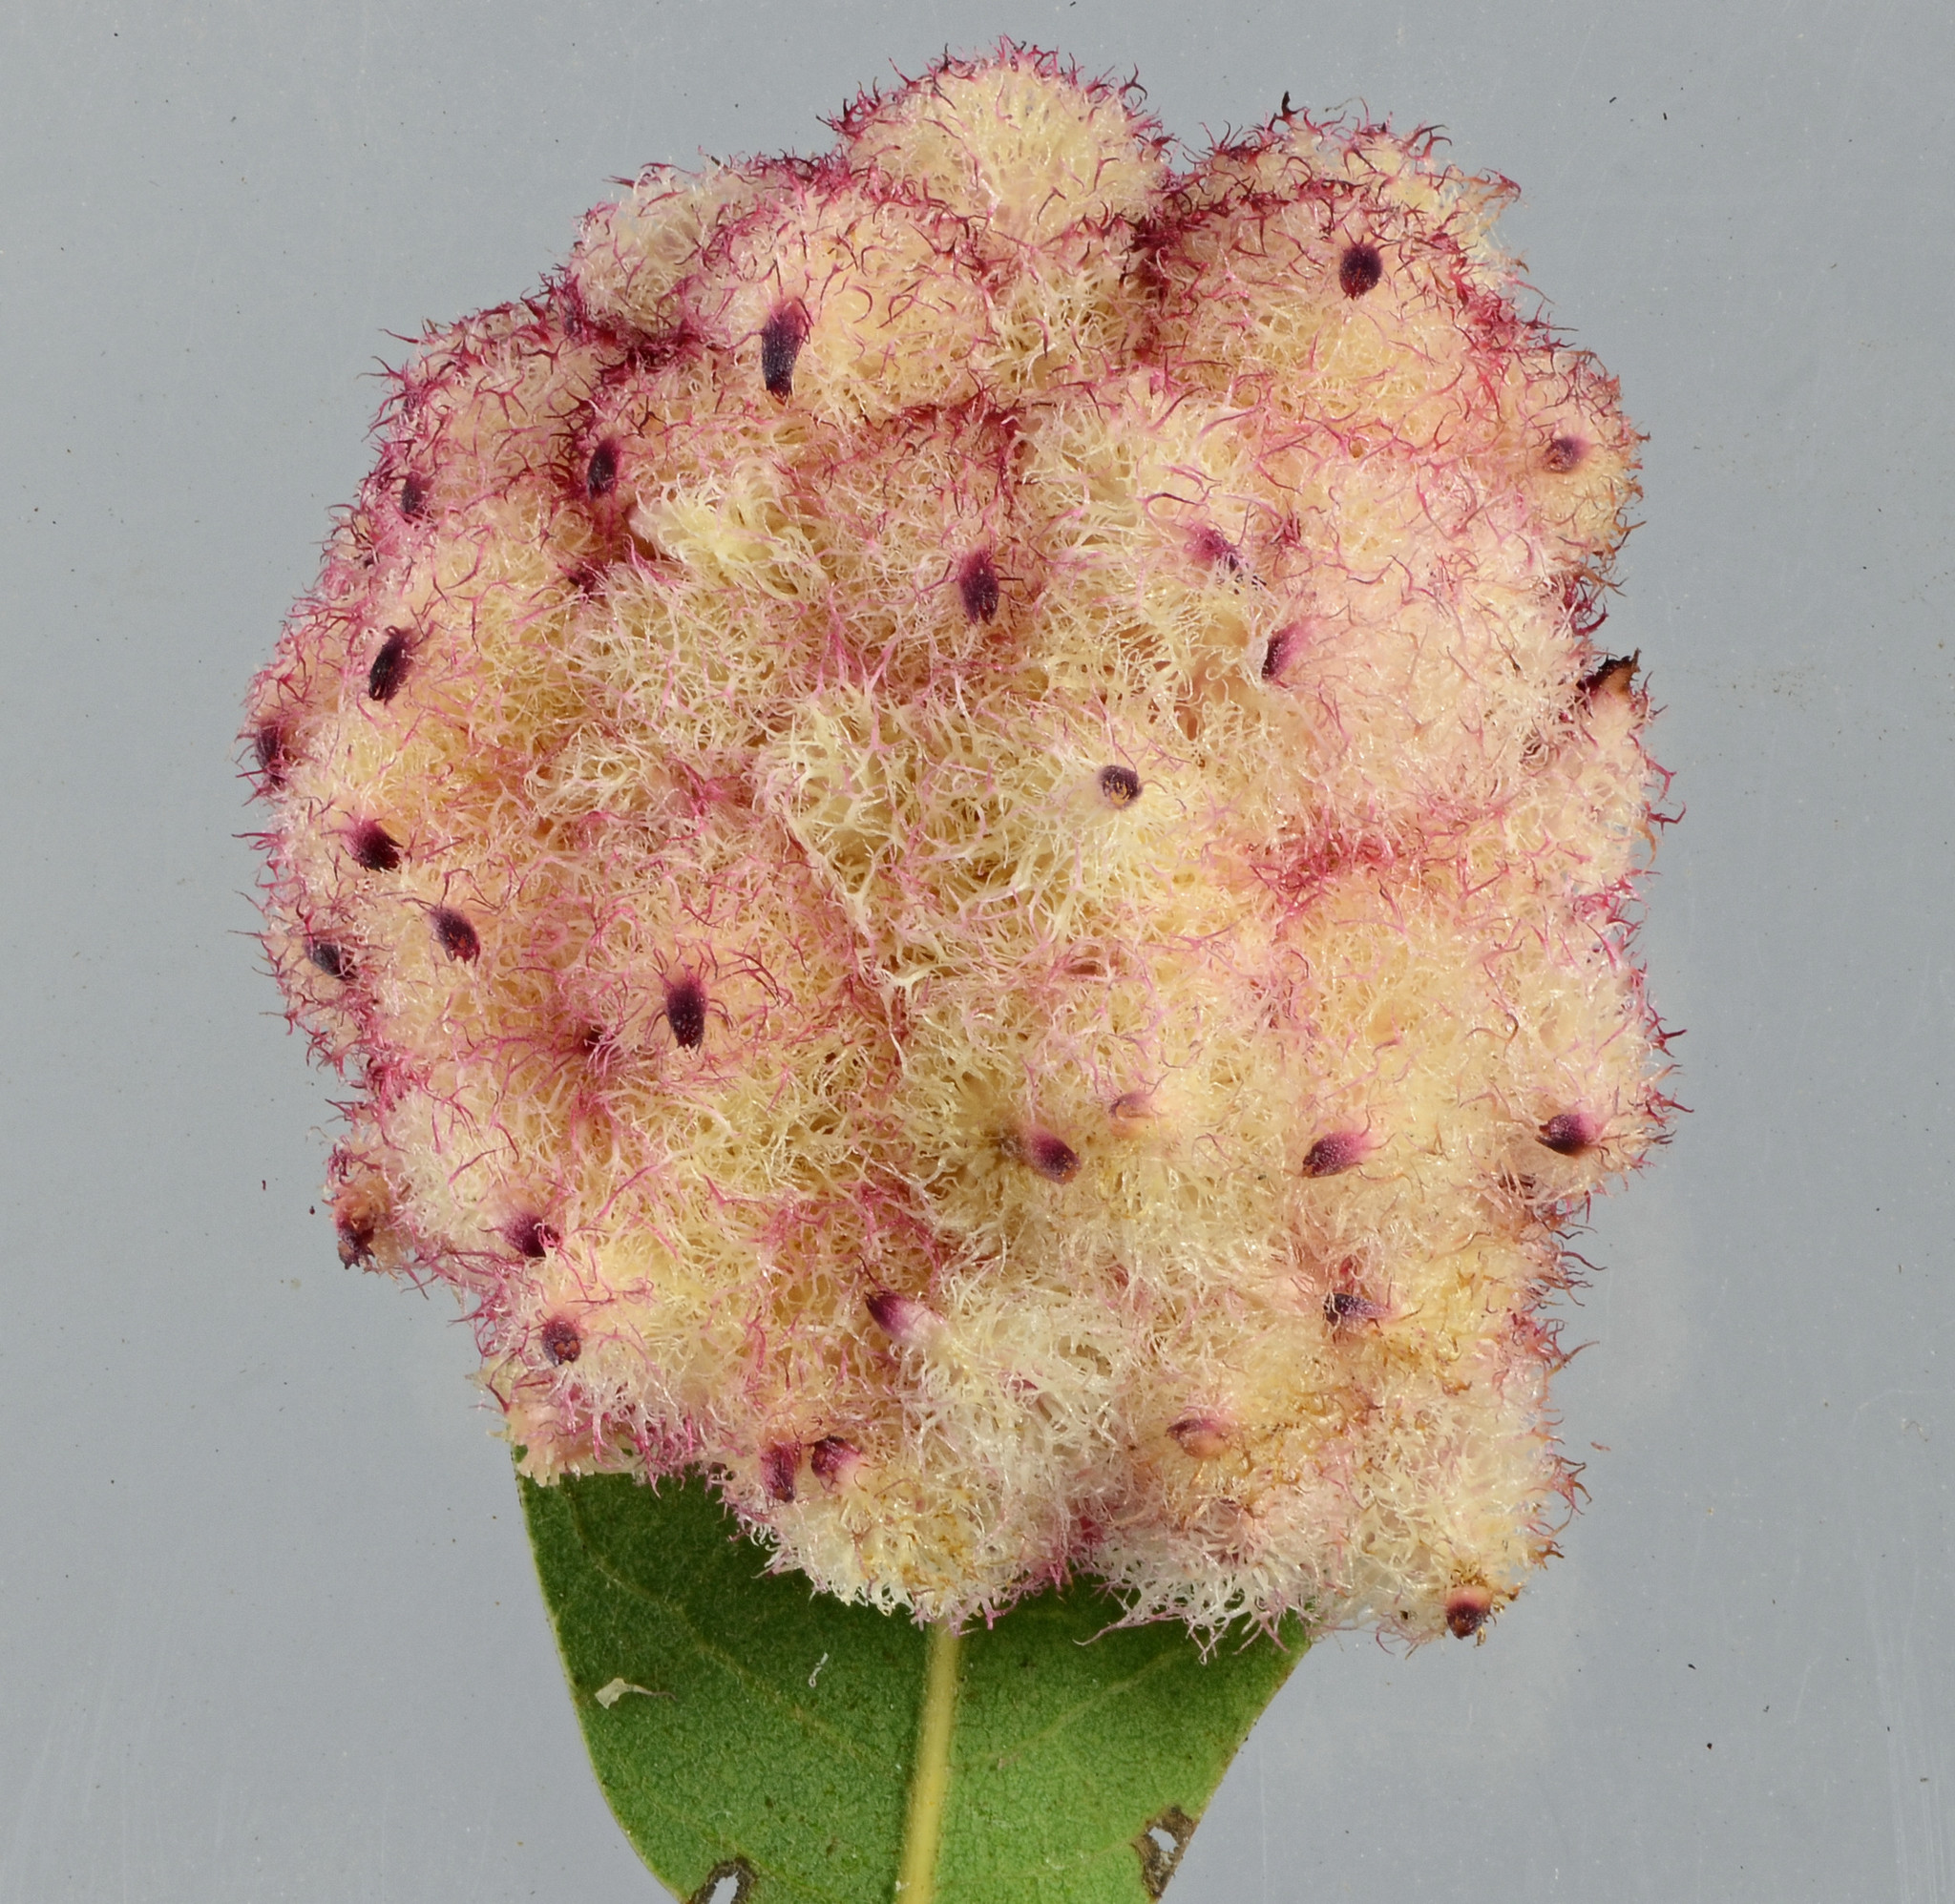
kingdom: Animalia
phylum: Arthropoda
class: Insecta
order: Hymenoptera
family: Cynipidae
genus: Andricus
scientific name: Andricus
